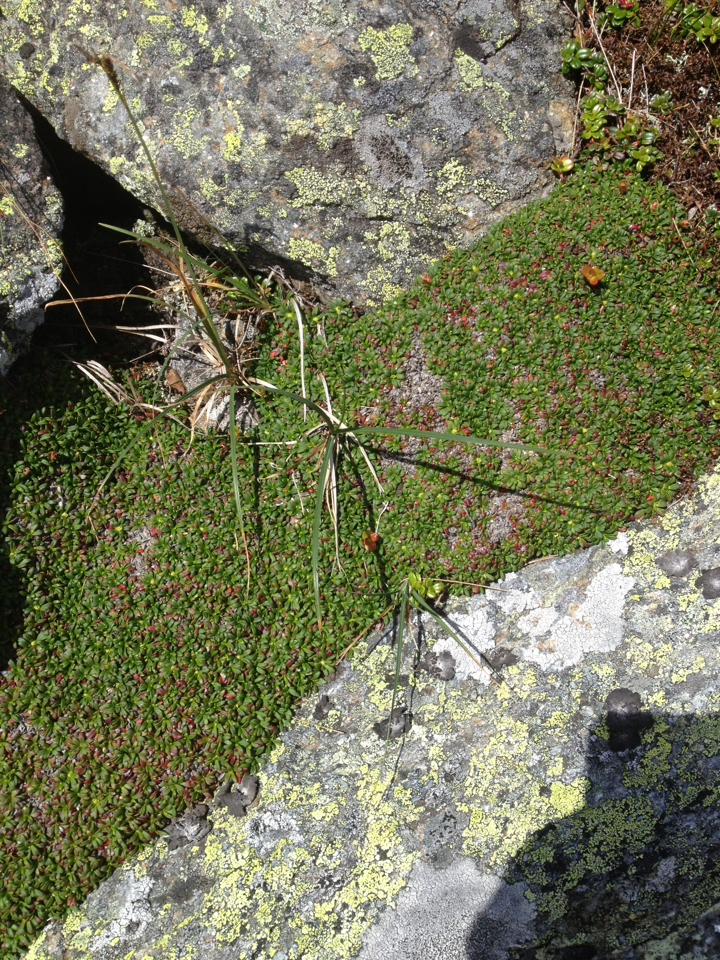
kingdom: Plantae
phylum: Tracheophyta
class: Magnoliopsida
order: Ericales
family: Diapensiaceae
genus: Diapensia
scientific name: Diapensia lapponica
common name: Diapensia
